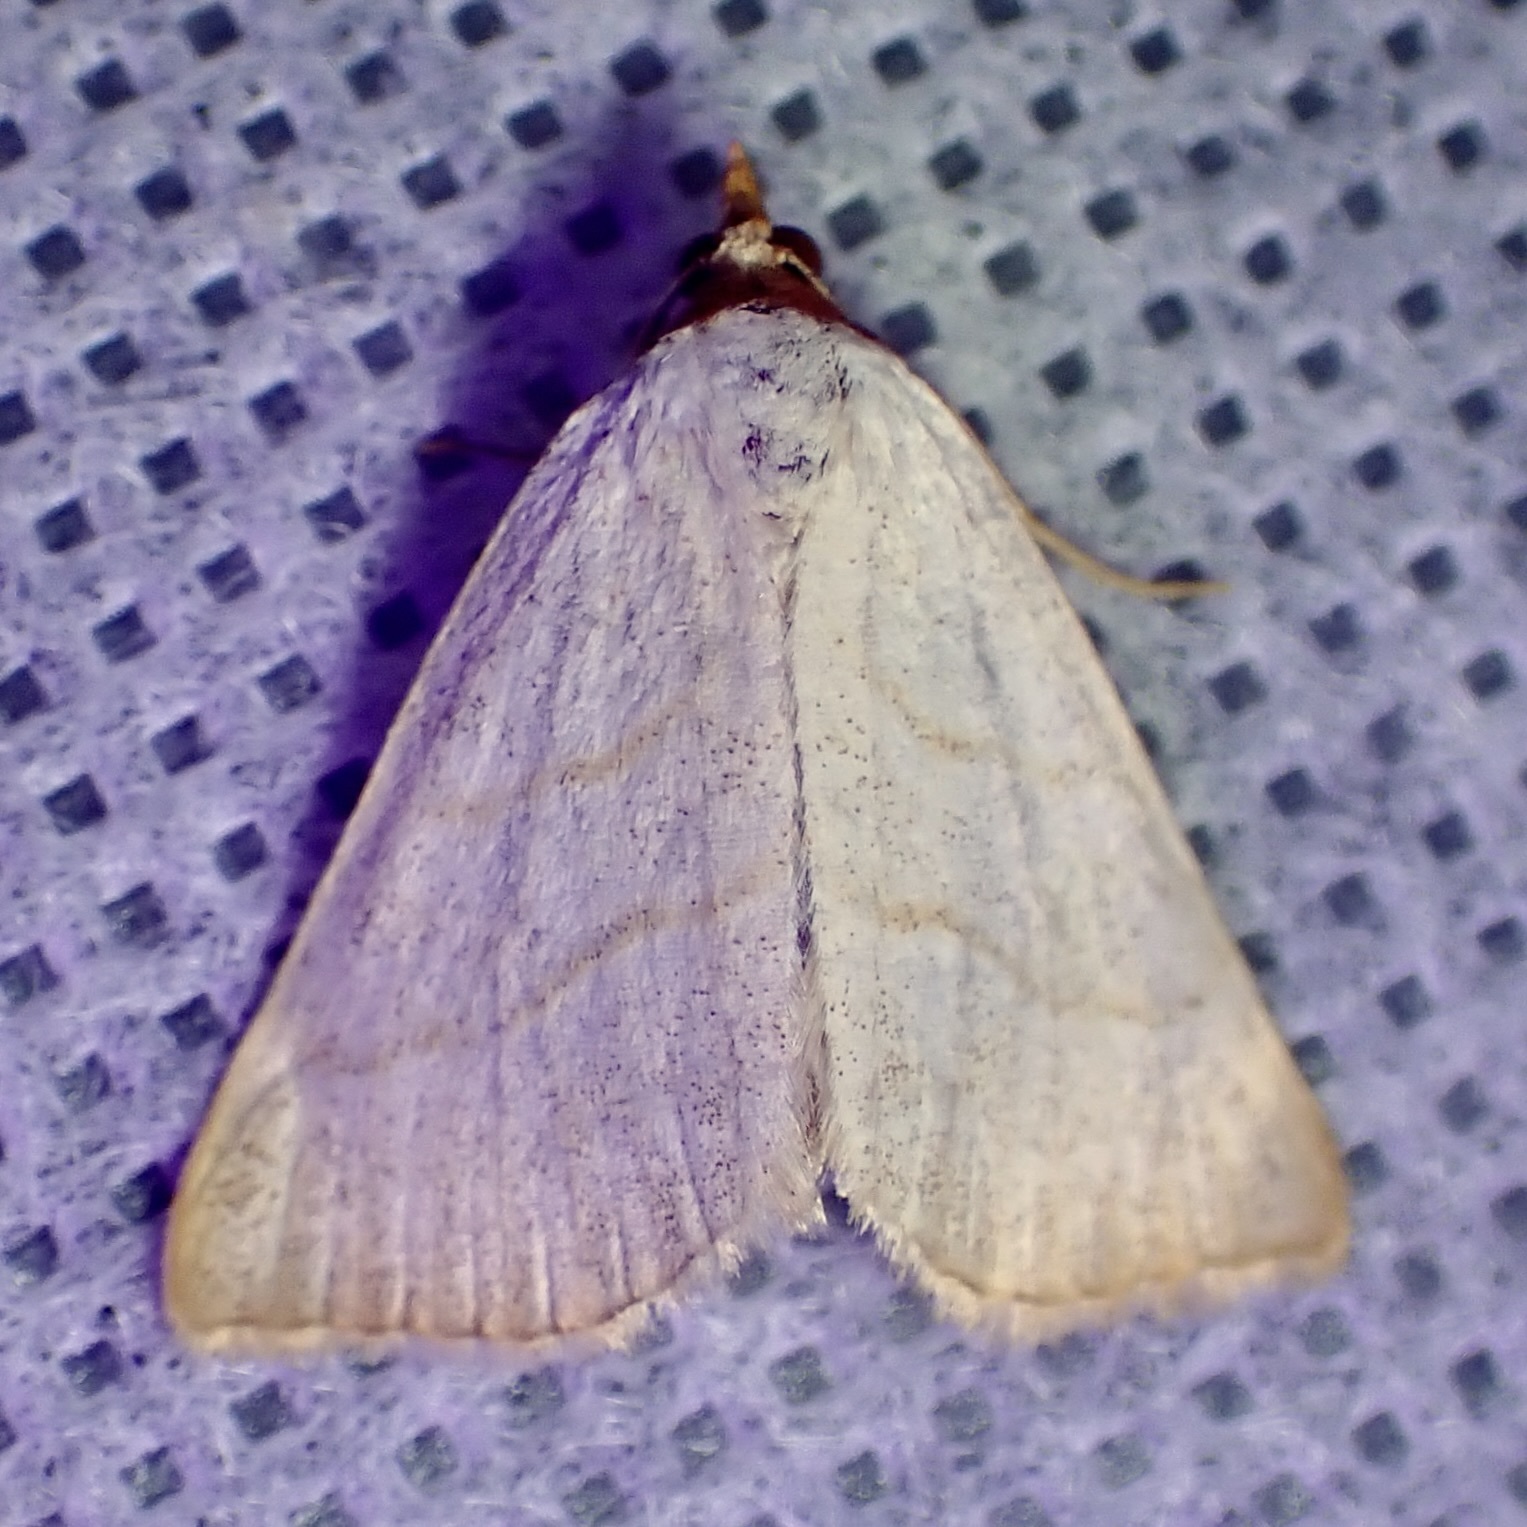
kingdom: Animalia
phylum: Arthropoda
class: Insecta
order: Lepidoptera
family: Erebidae
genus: Oxycilla
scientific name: Oxycilla tripla
